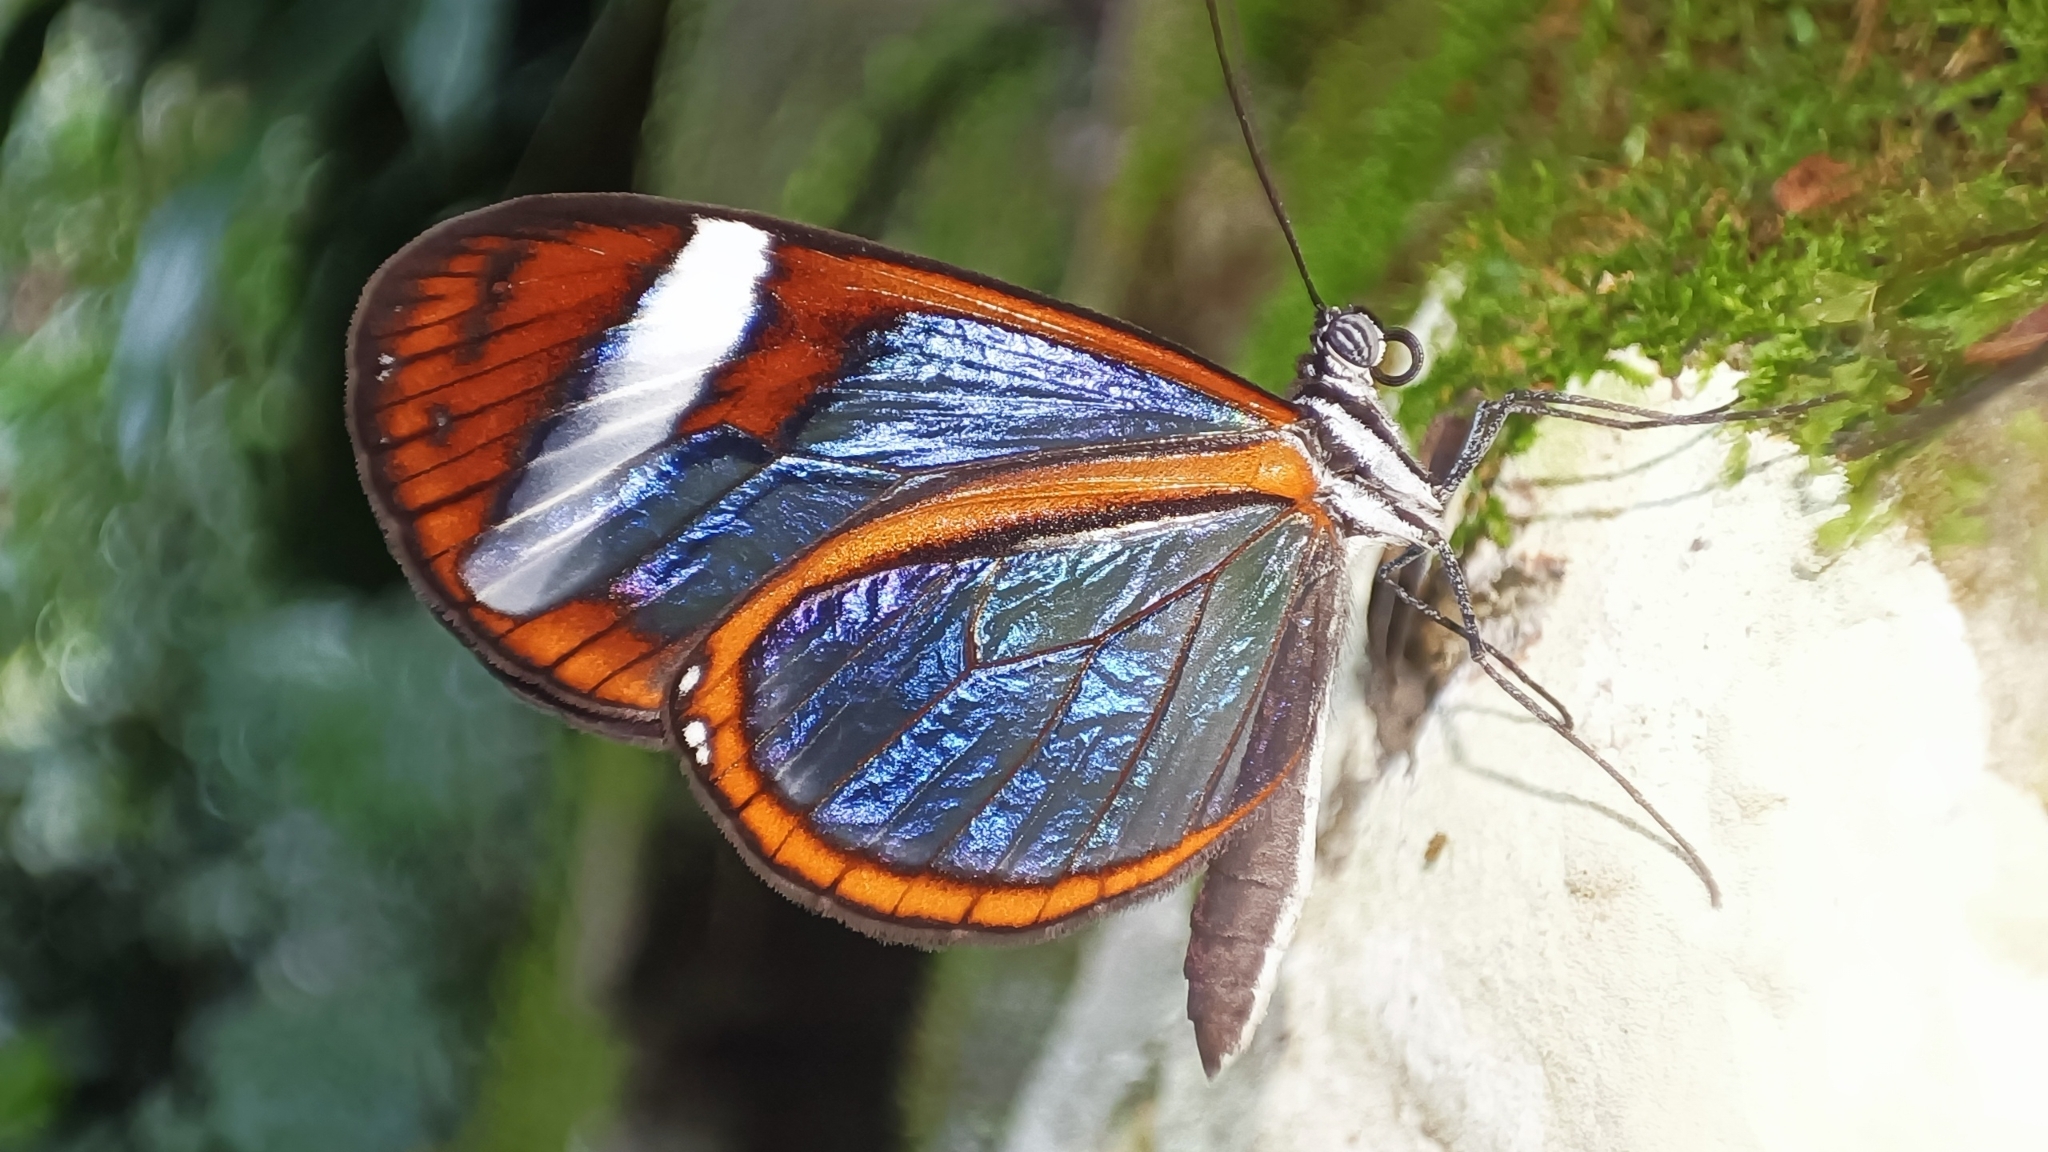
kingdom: Animalia
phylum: Arthropoda
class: Insecta
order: Lepidoptera
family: Nymphalidae
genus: Oleria
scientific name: Oleria paula
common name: Paula's clearwing
